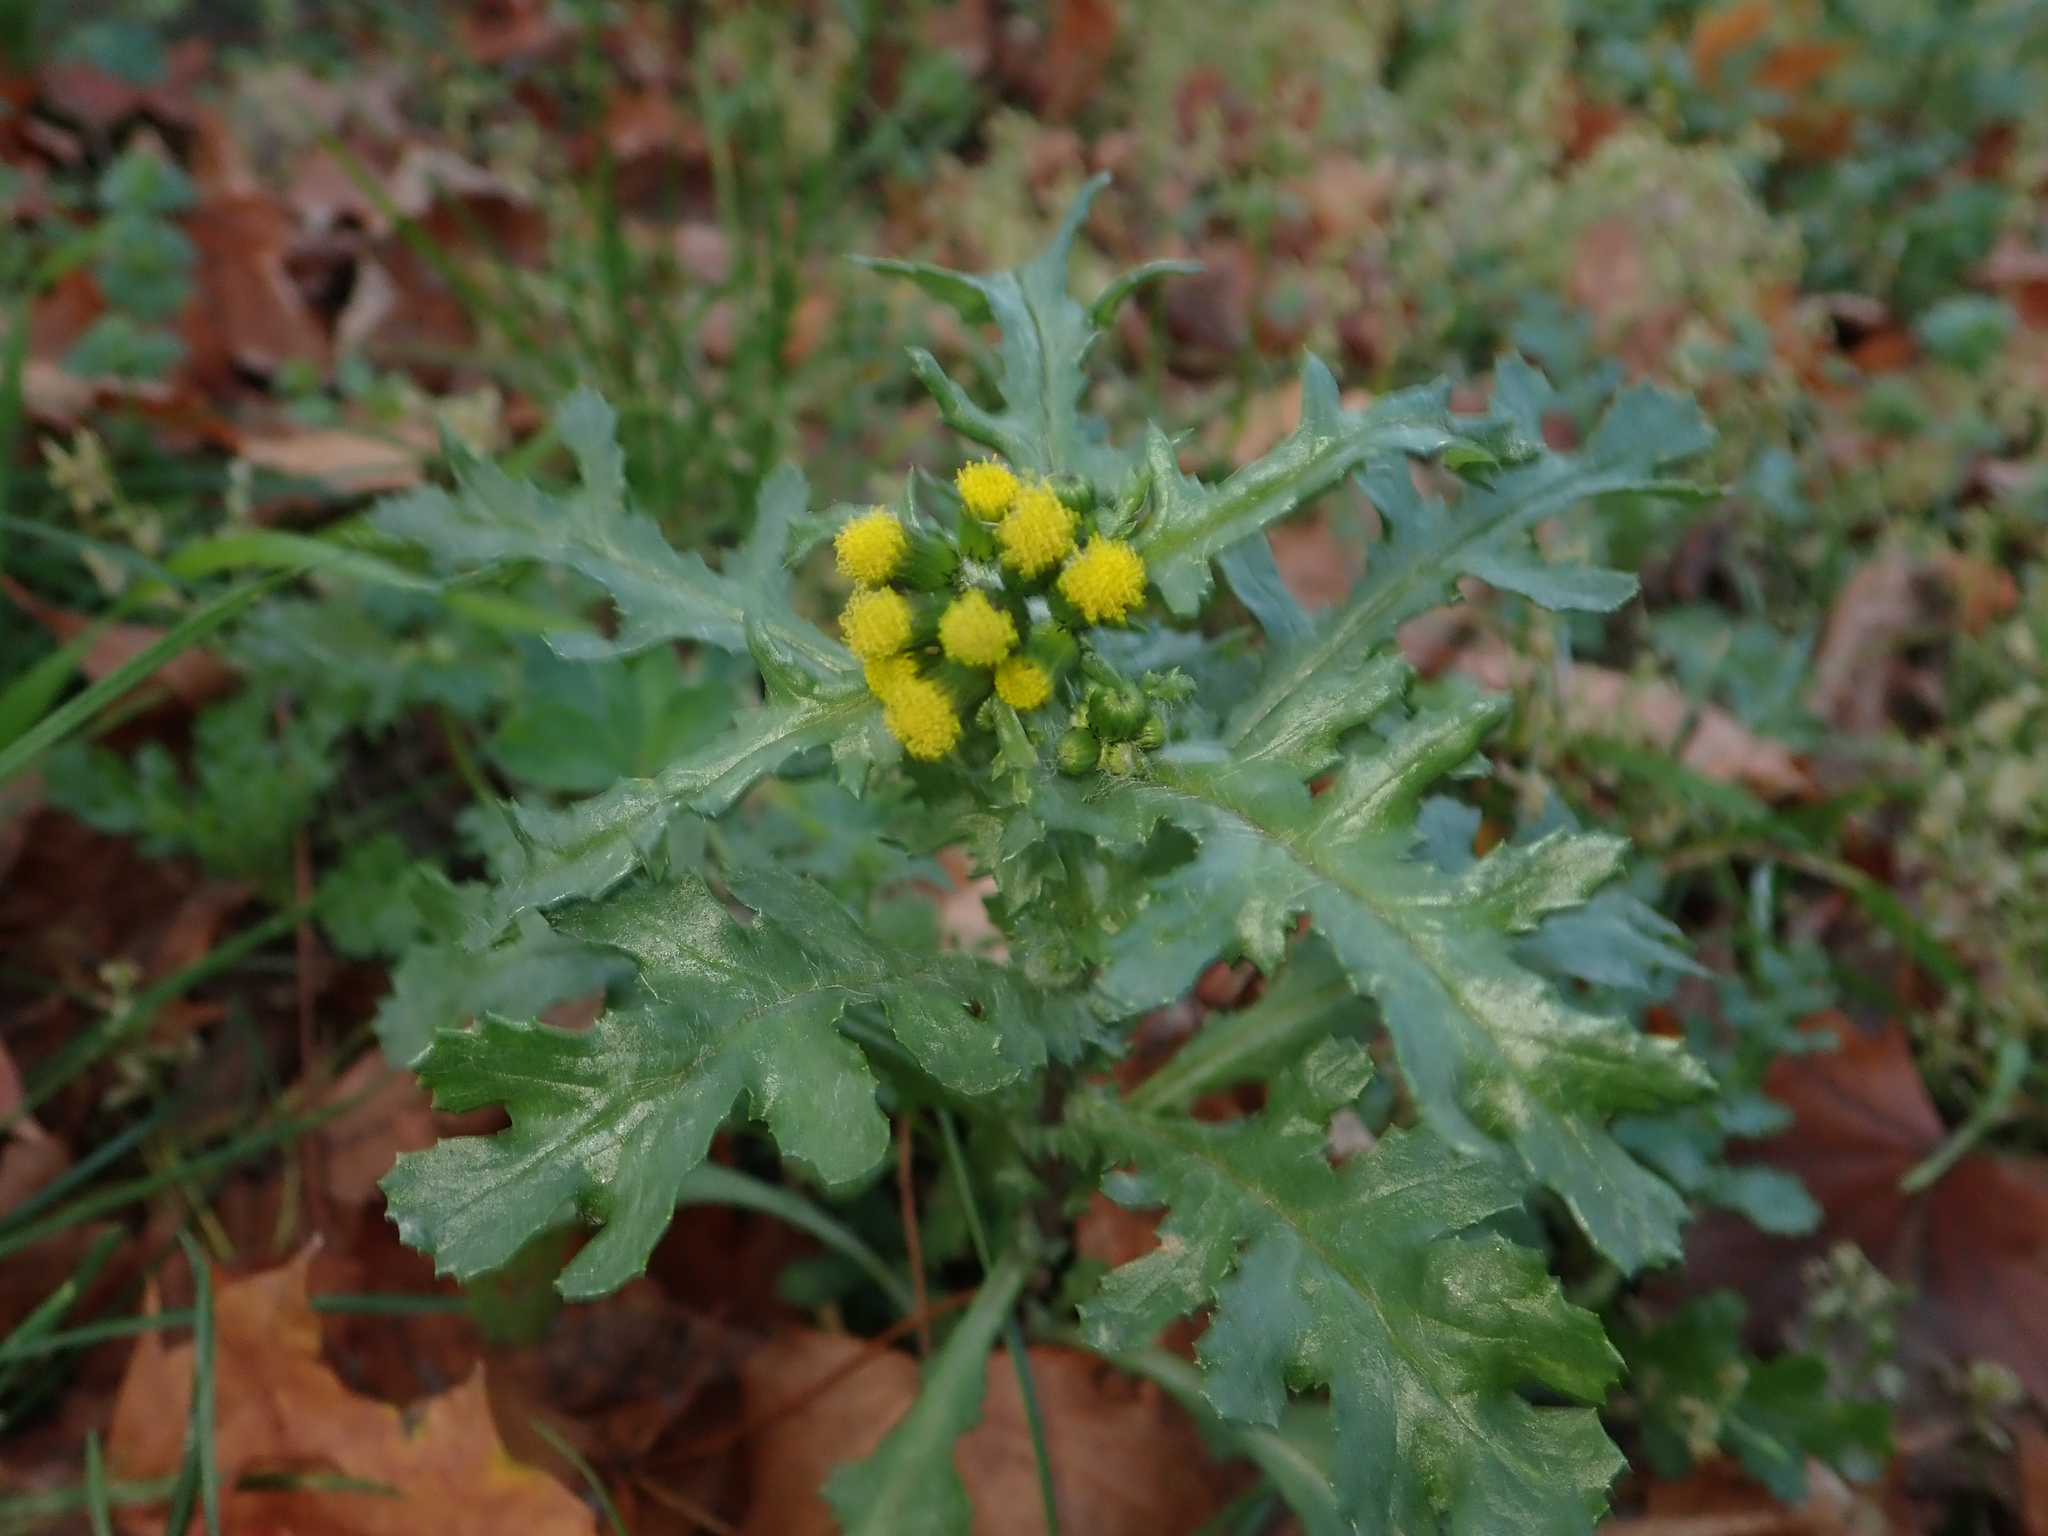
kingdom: Plantae
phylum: Tracheophyta
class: Magnoliopsida
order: Asterales
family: Asteraceae
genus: Senecio
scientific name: Senecio vulgaris
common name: Old-man-in-the-spring
